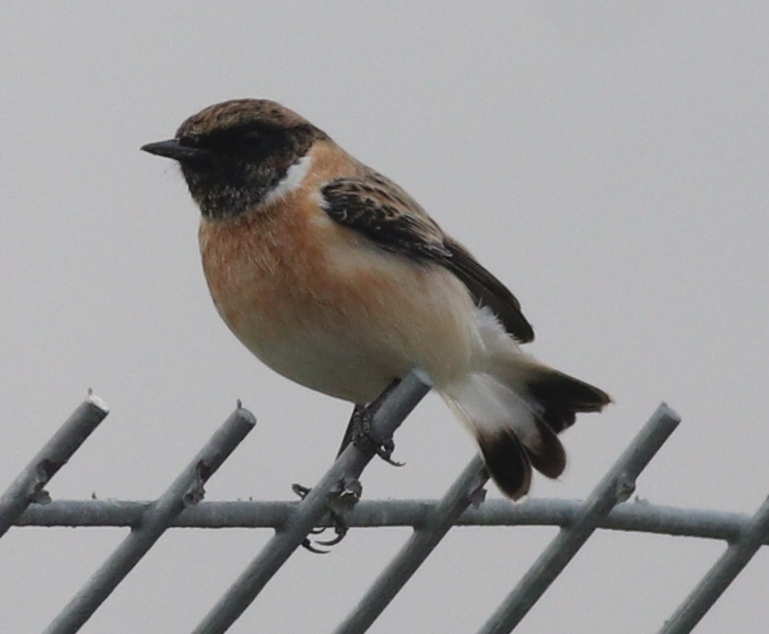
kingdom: Animalia
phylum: Chordata
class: Aves
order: Passeriformes
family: Muscicapidae
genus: Saxicola
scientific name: Saxicola maurus
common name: Siberian stonechat
